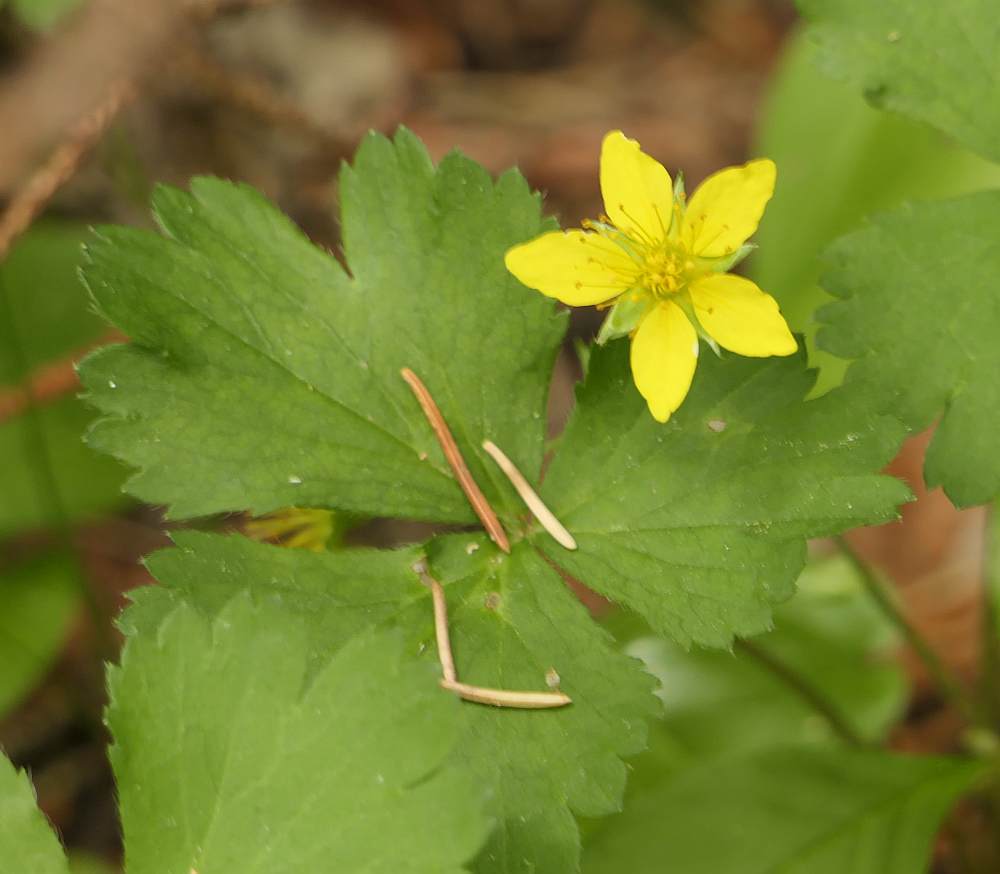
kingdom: Plantae
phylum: Tracheophyta
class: Magnoliopsida
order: Rosales
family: Rosaceae
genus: Geum
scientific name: Geum fragarioides
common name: Appalachian barren strawberry
